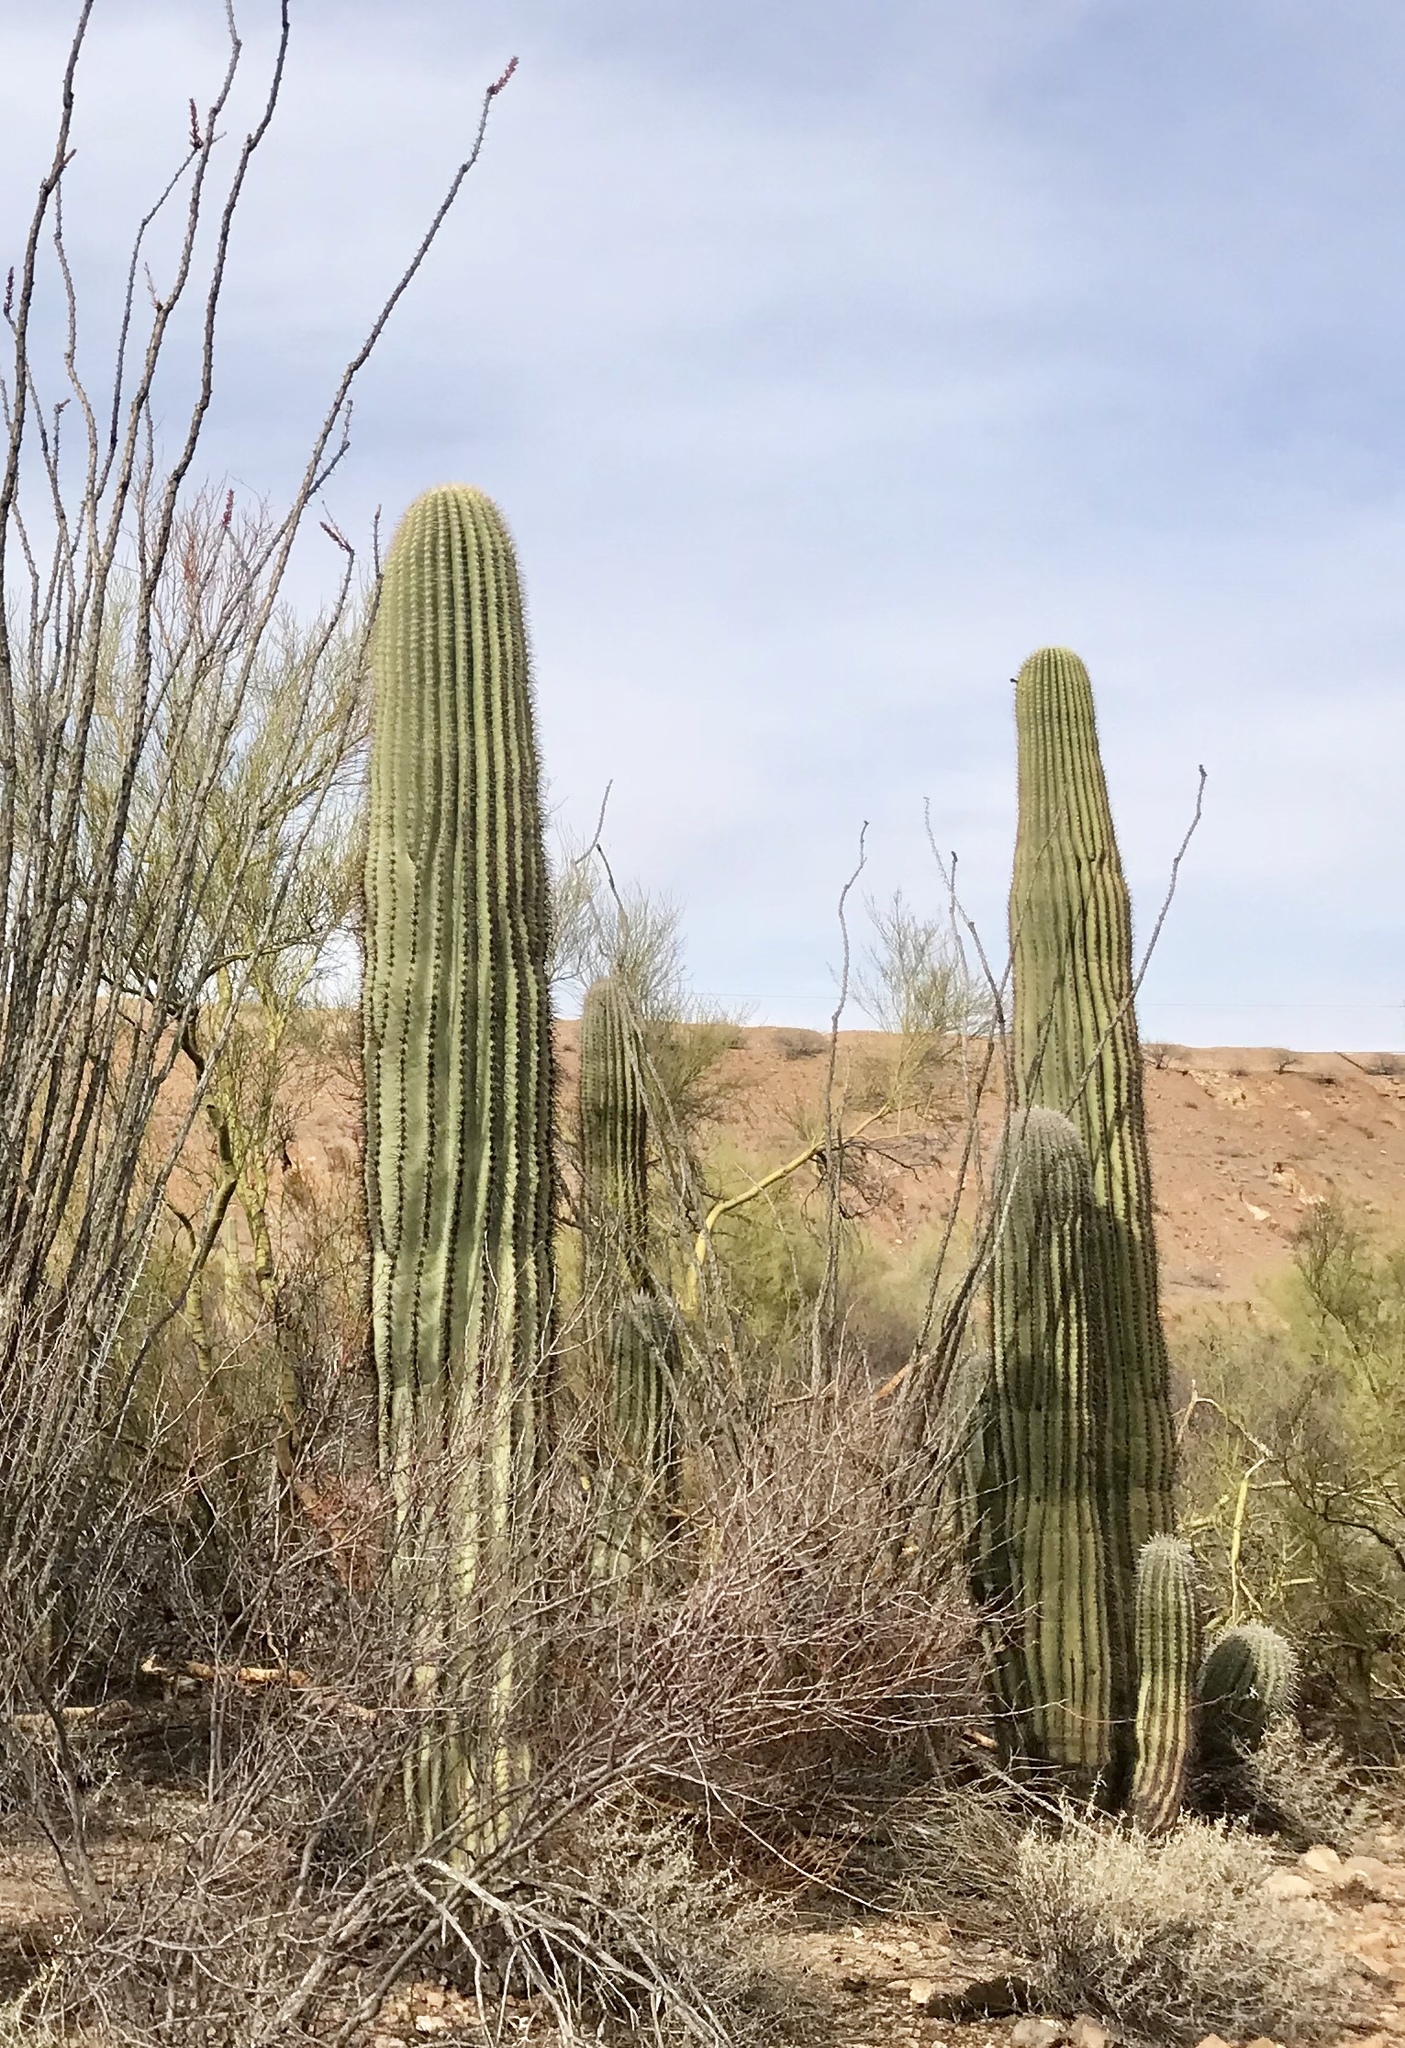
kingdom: Plantae
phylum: Tracheophyta
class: Magnoliopsida
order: Caryophyllales
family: Cactaceae
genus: Carnegiea
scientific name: Carnegiea gigantea
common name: Saguaro
